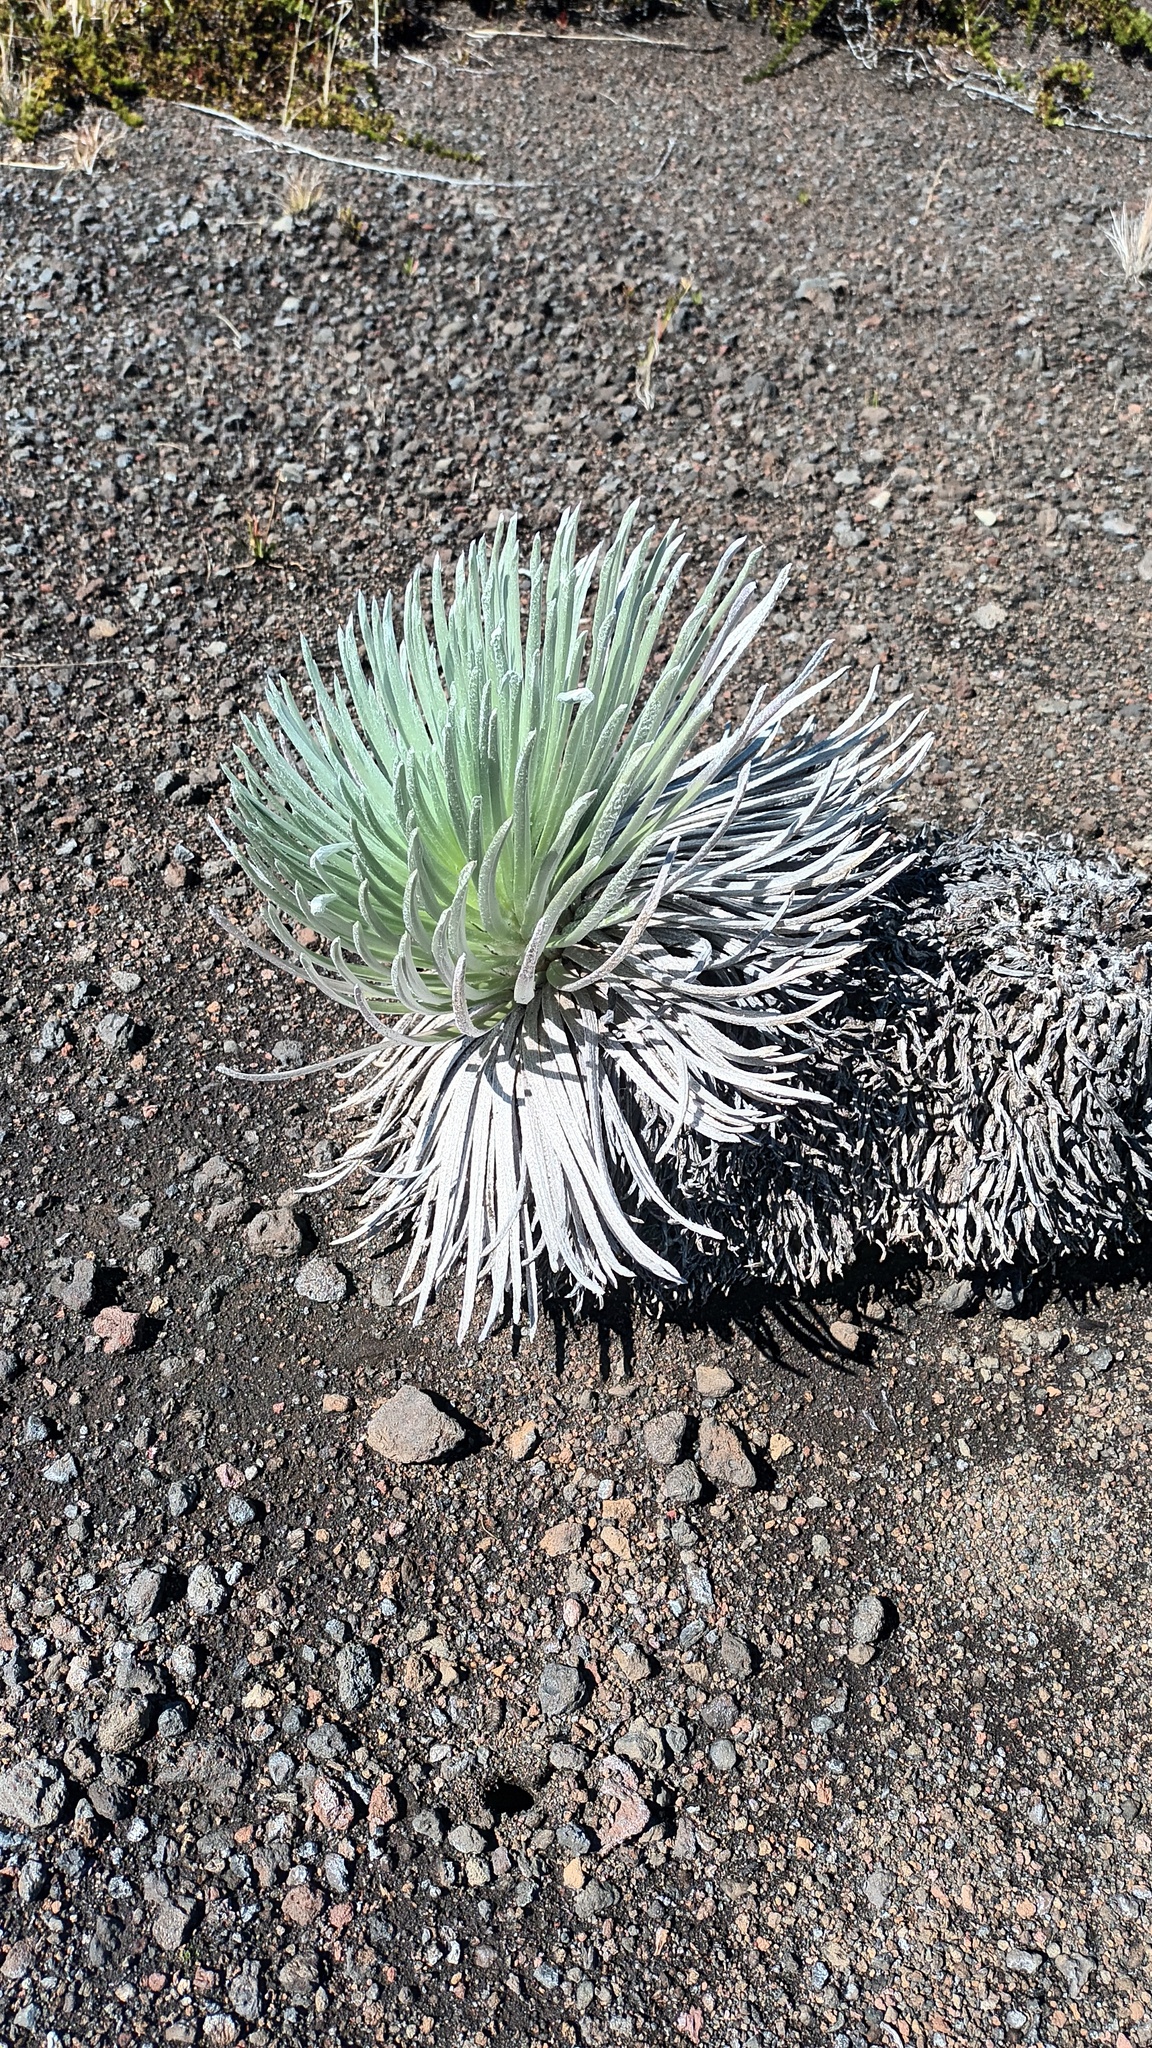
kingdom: Plantae
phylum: Tracheophyta
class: Magnoliopsida
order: Asterales
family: Asteraceae
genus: Argyroxiphium
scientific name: Argyroxiphium sandwicense
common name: Silversword
